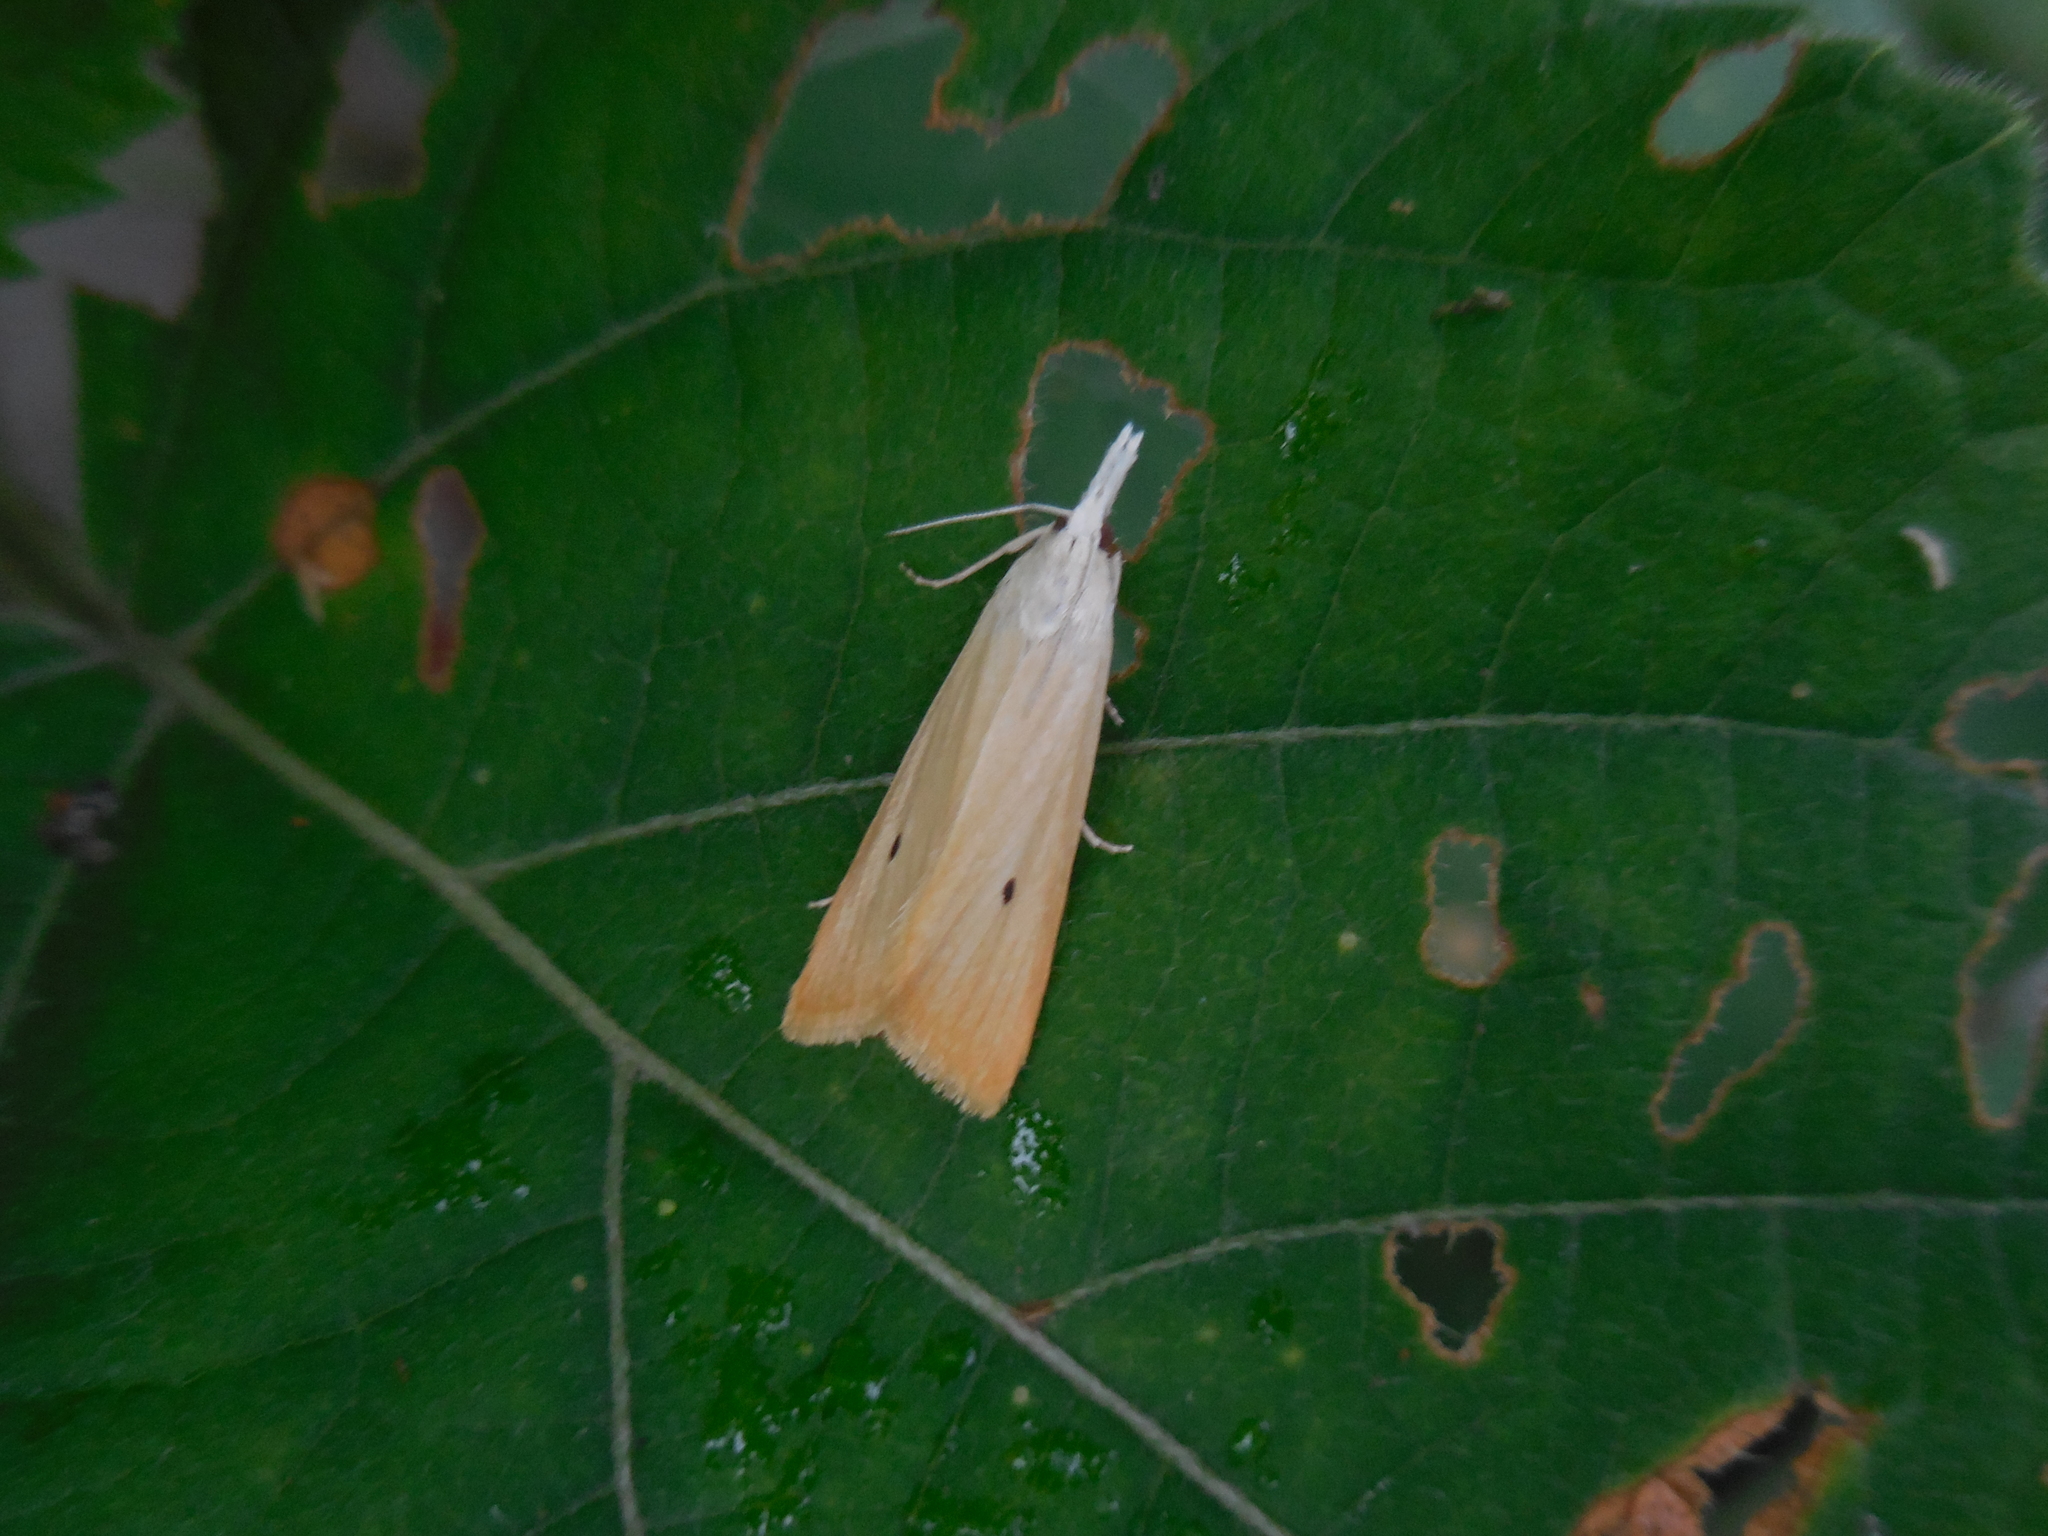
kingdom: Animalia
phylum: Arthropoda
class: Insecta
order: Lepidoptera
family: Crambidae
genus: Scirpophaga
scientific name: Scirpophaga incertulas
